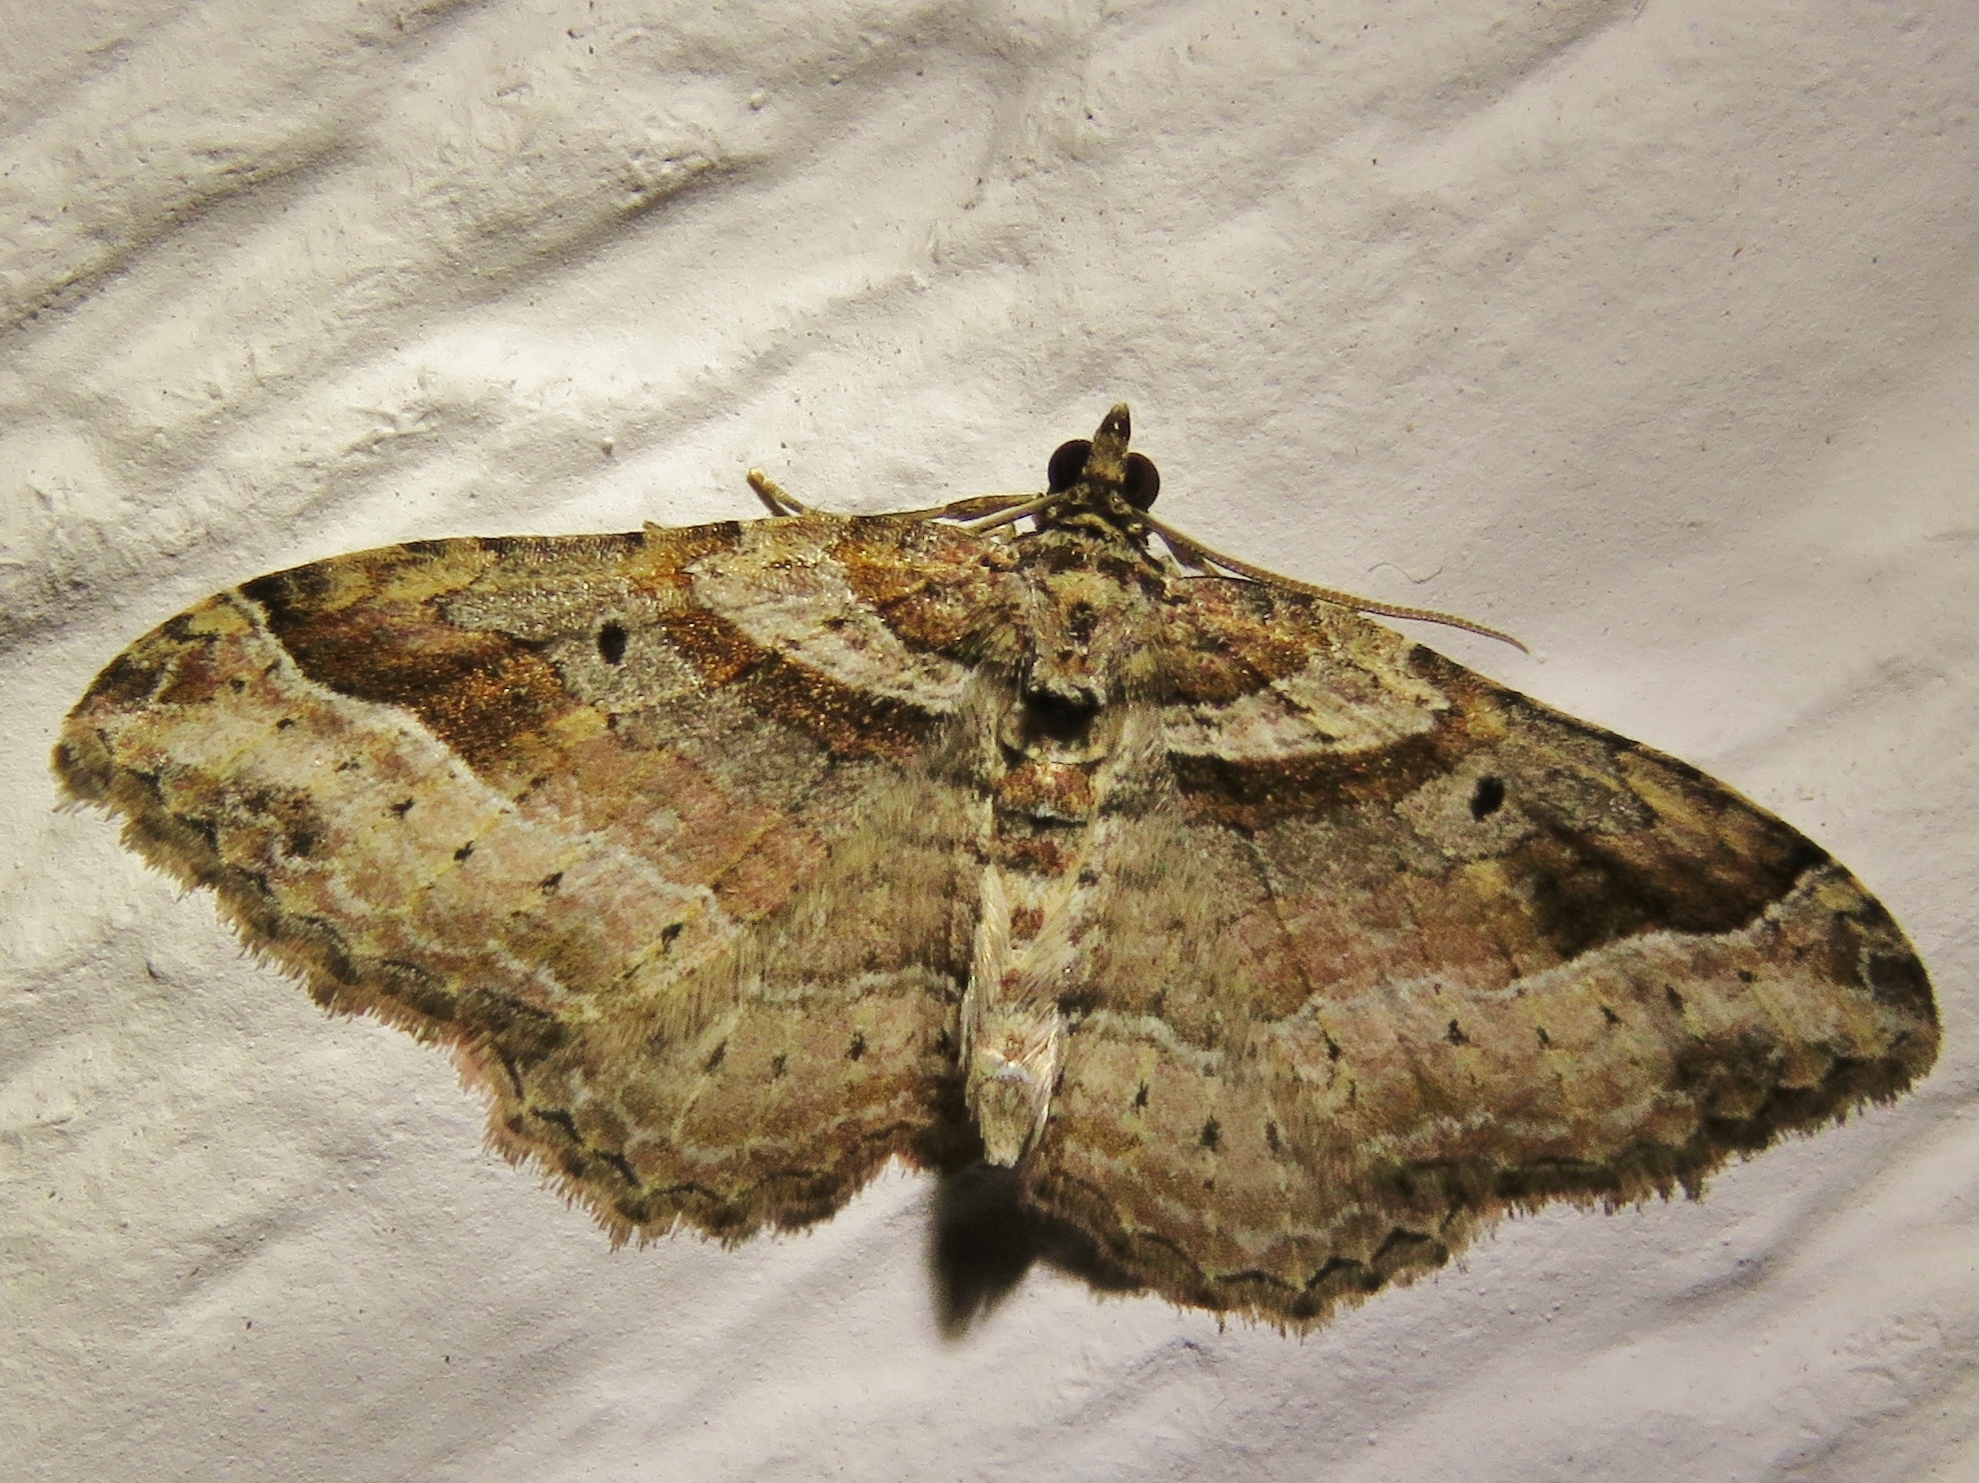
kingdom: Animalia
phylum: Arthropoda
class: Insecta
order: Lepidoptera
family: Geometridae
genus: Costaconvexa
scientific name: Costaconvexa centrostrigaria
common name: Bent-line carpet
